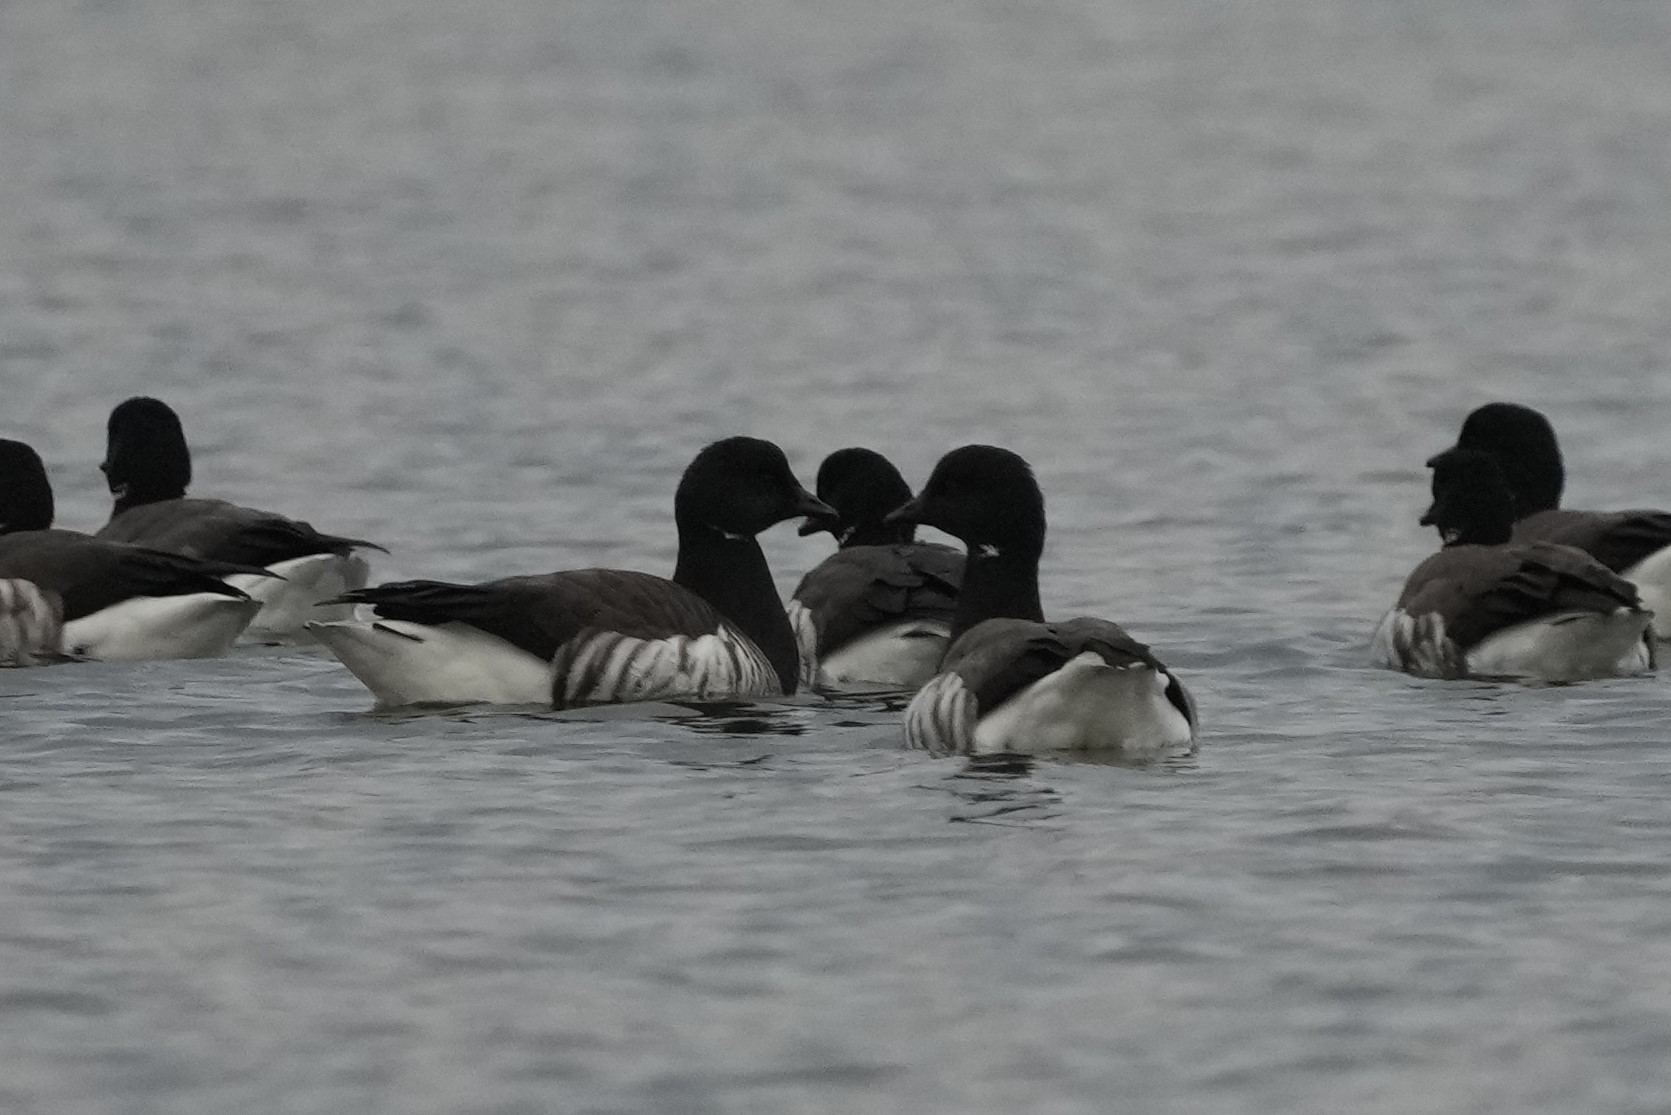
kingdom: Animalia
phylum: Chordata
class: Aves
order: Anseriformes
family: Anatidae
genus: Branta
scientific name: Branta bernicla
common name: Brant goose
